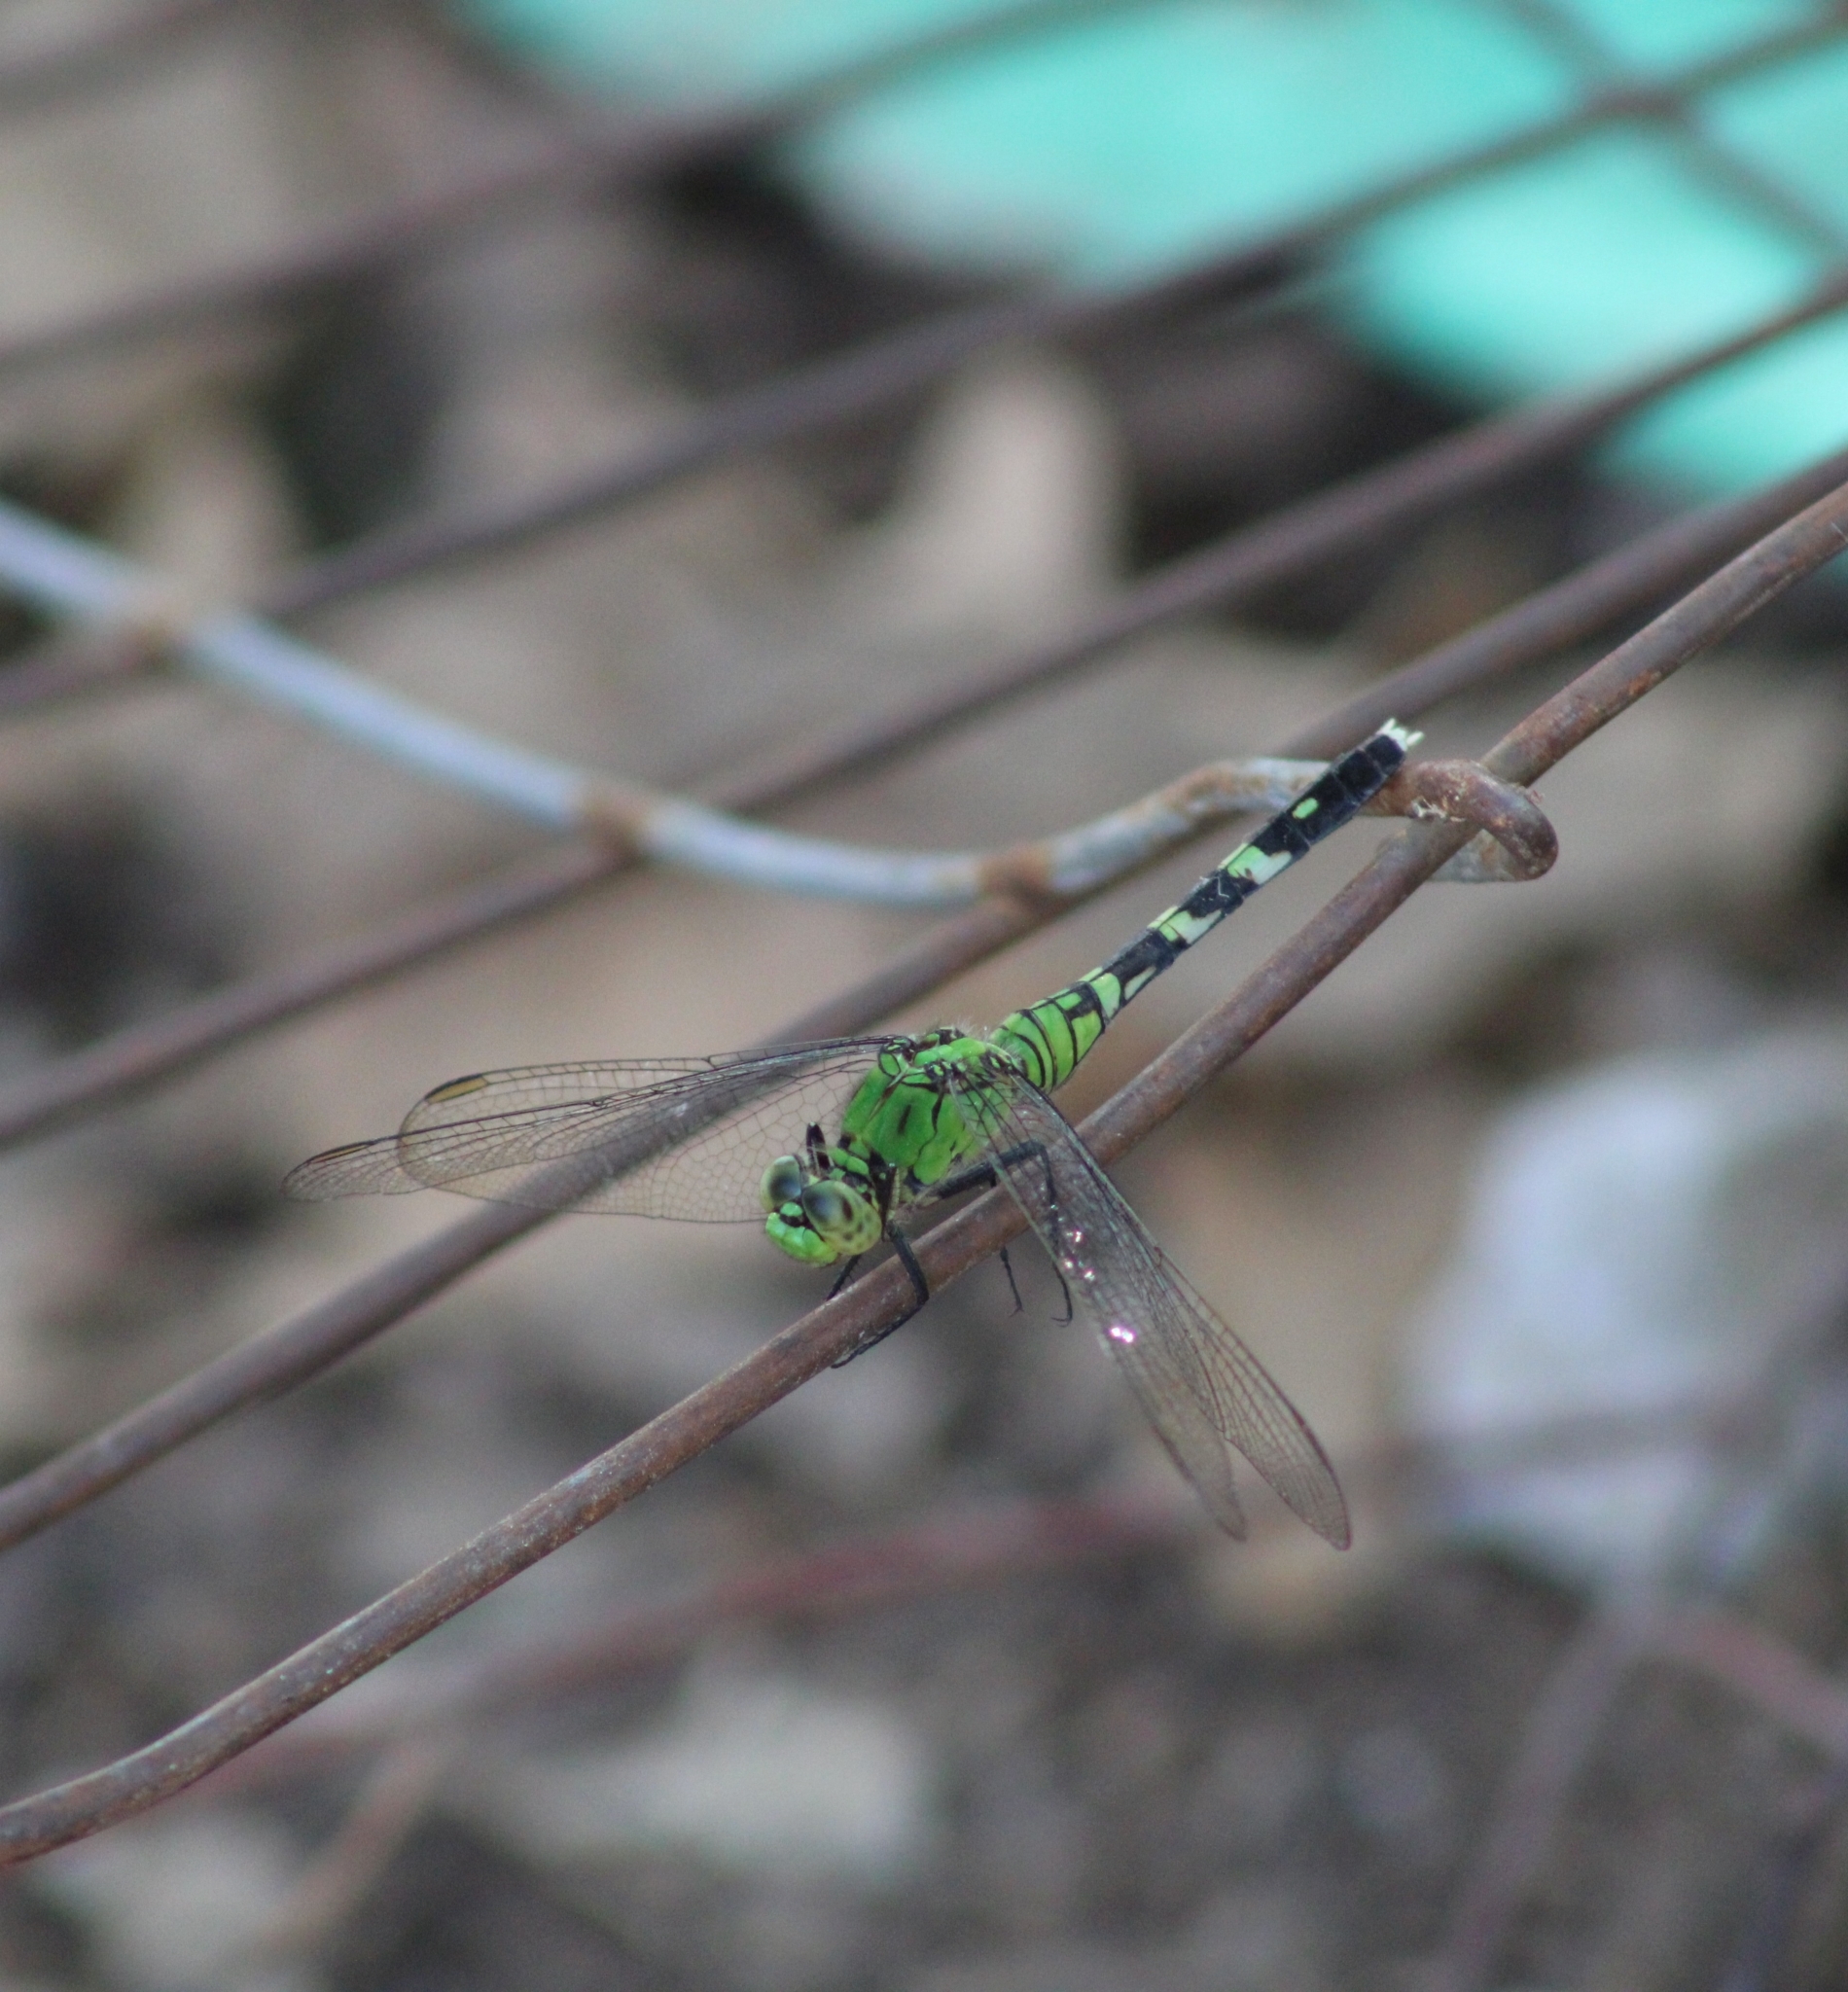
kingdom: Animalia
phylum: Arthropoda
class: Insecta
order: Odonata
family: Libellulidae
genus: Erythemis
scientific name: Erythemis simplicicollis
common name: Eastern pondhawk
